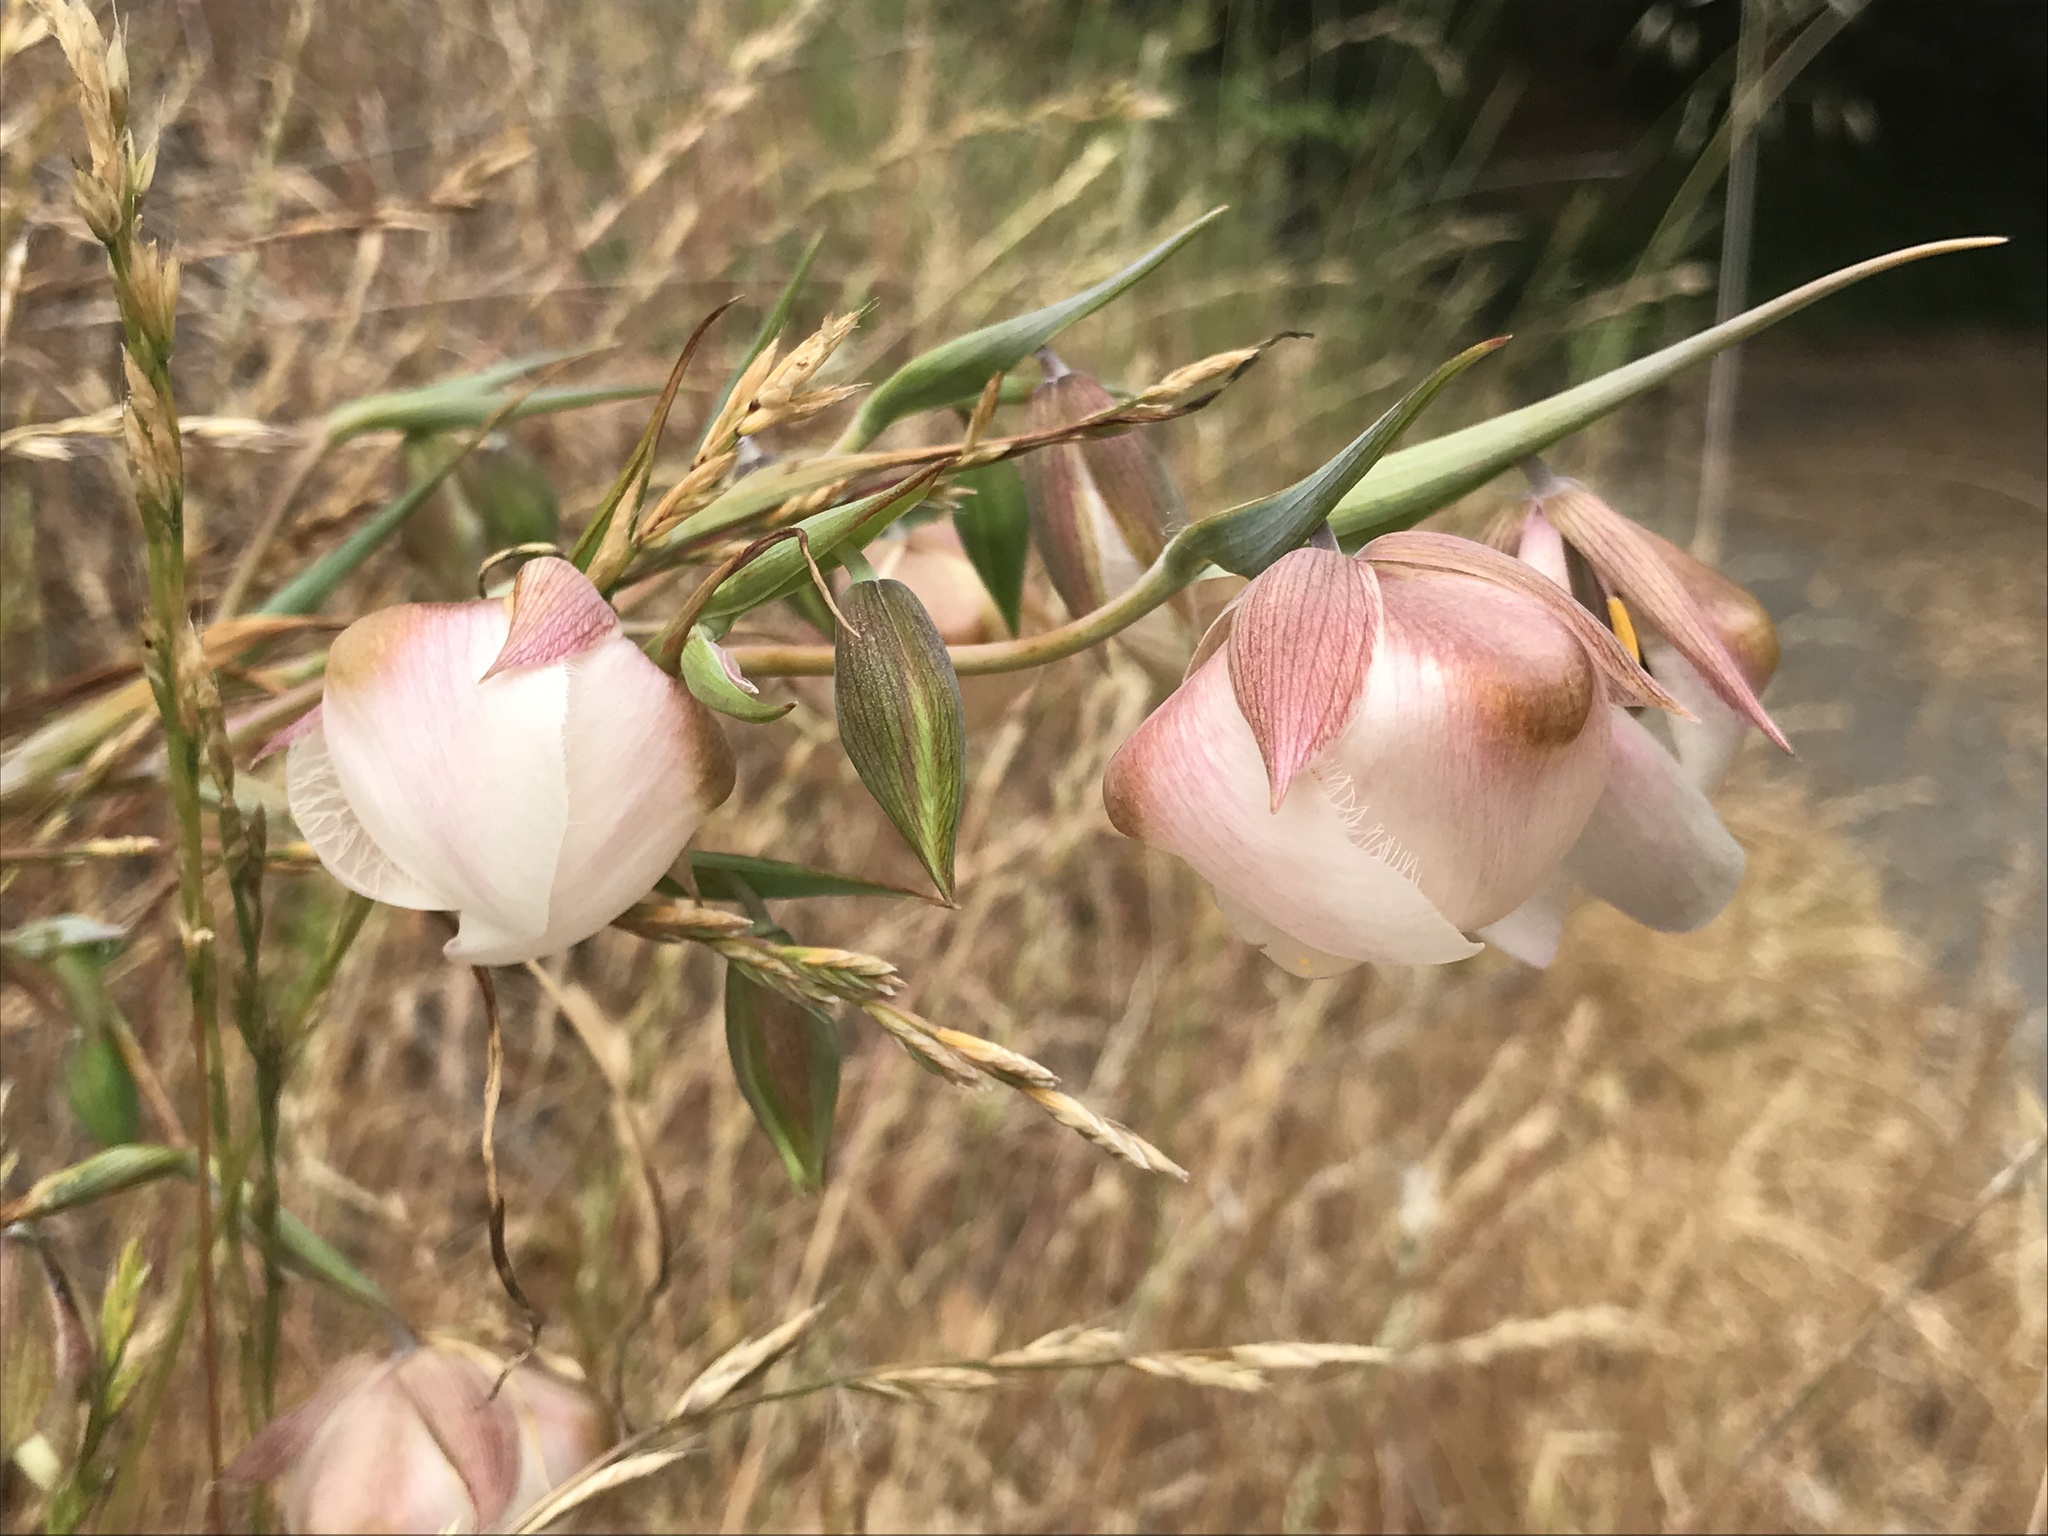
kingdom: Plantae
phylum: Tracheophyta
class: Liliopsida
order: Liliales
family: Liliaceae
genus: Calochortus
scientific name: Calochortus albus
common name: Fairy-lantern
